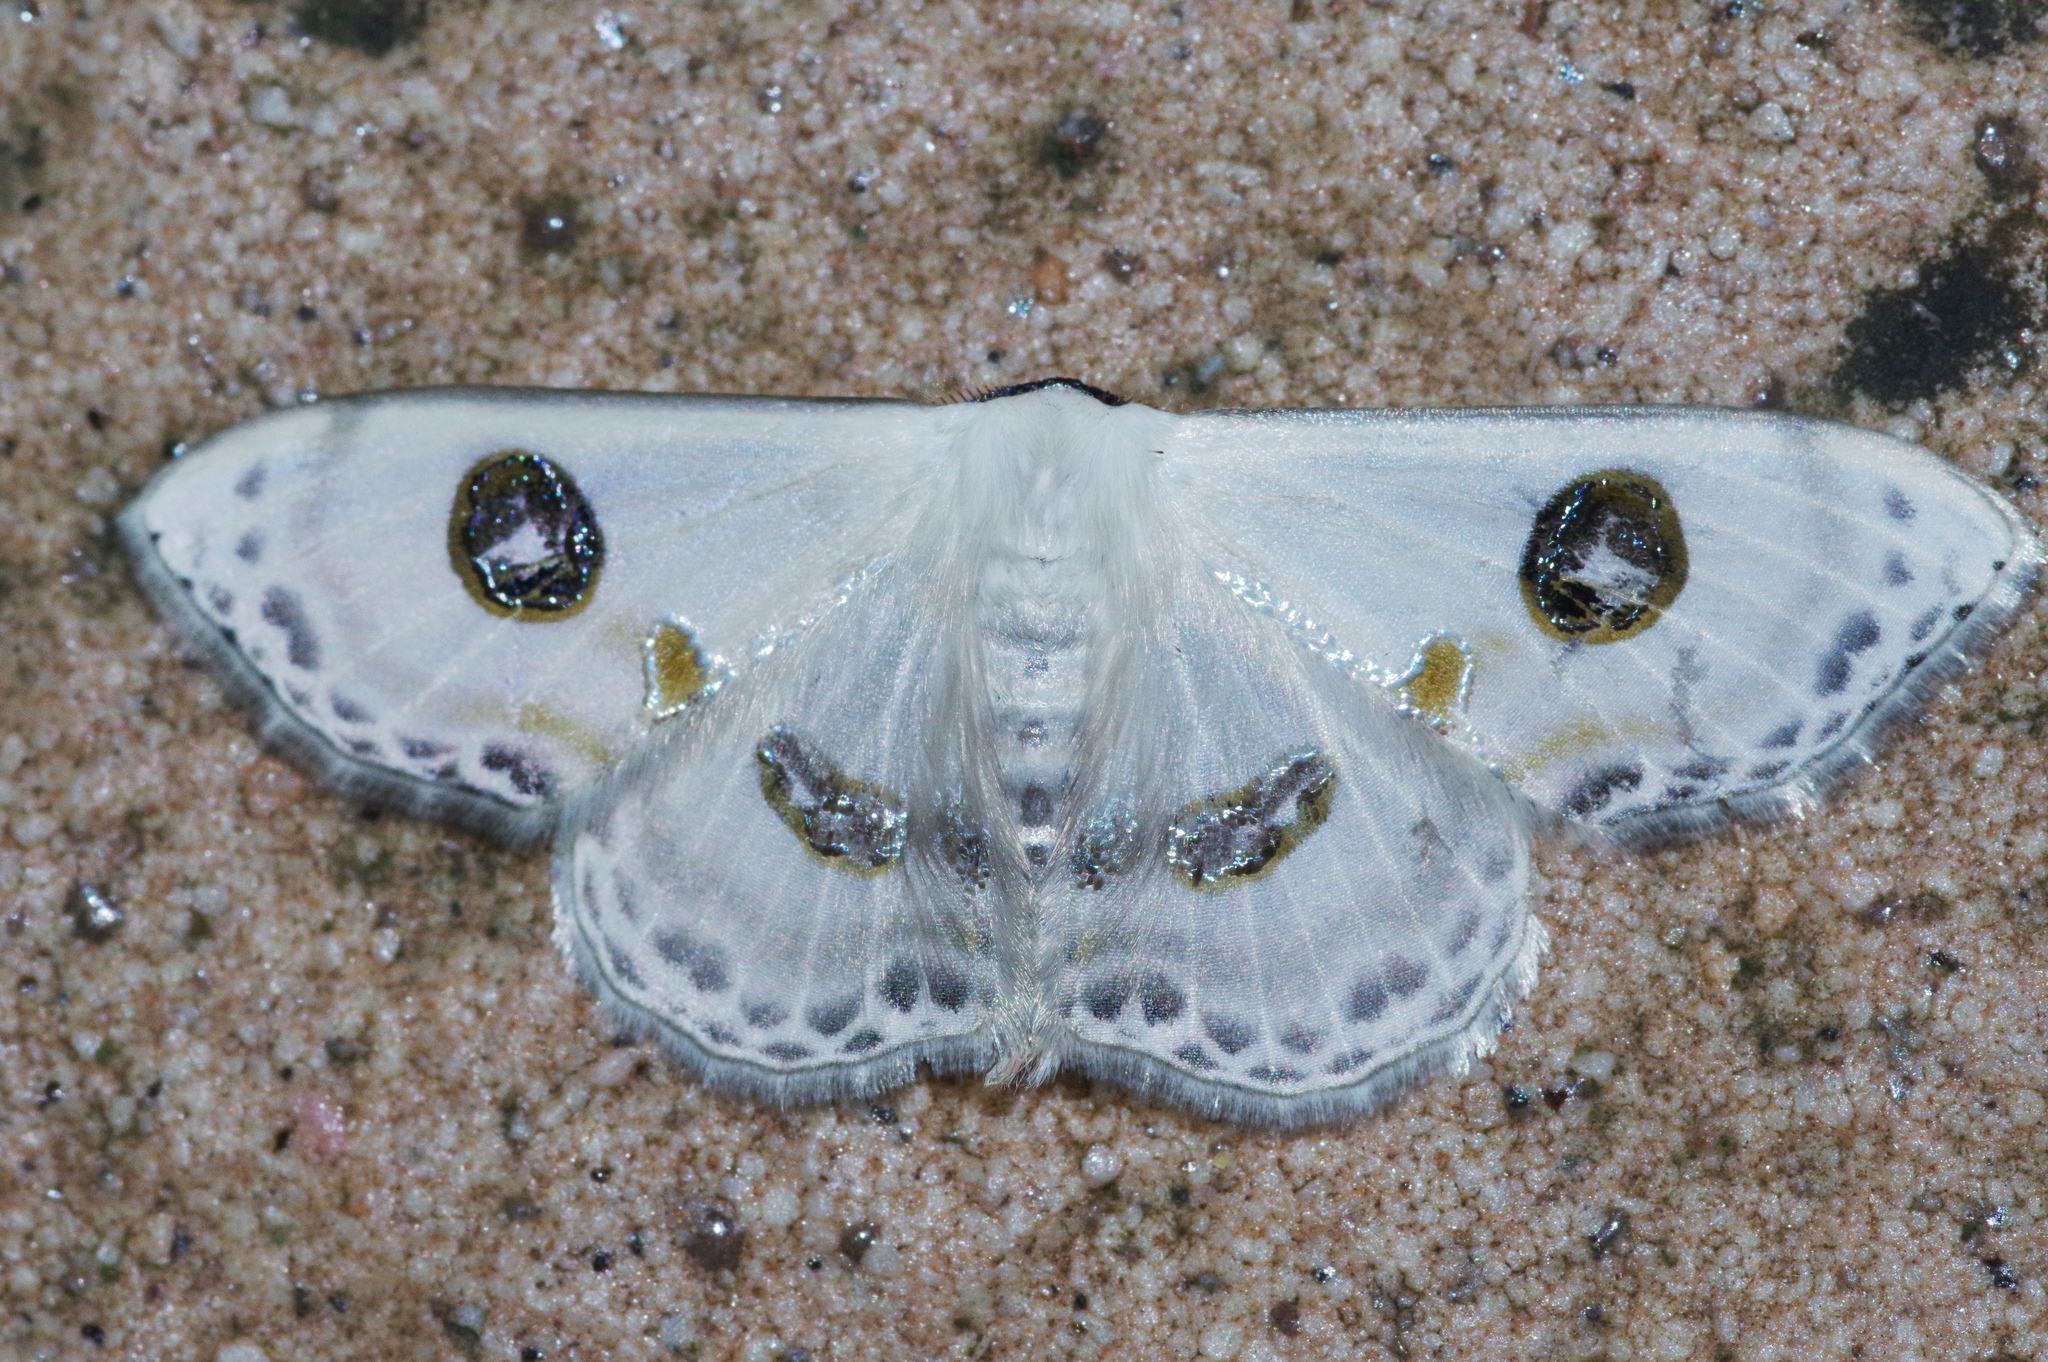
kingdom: Animalia
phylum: Arthropoda
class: Insecta
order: Lepidoptera
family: Geometridae
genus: Problepsis
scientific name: Problepsis albidior
